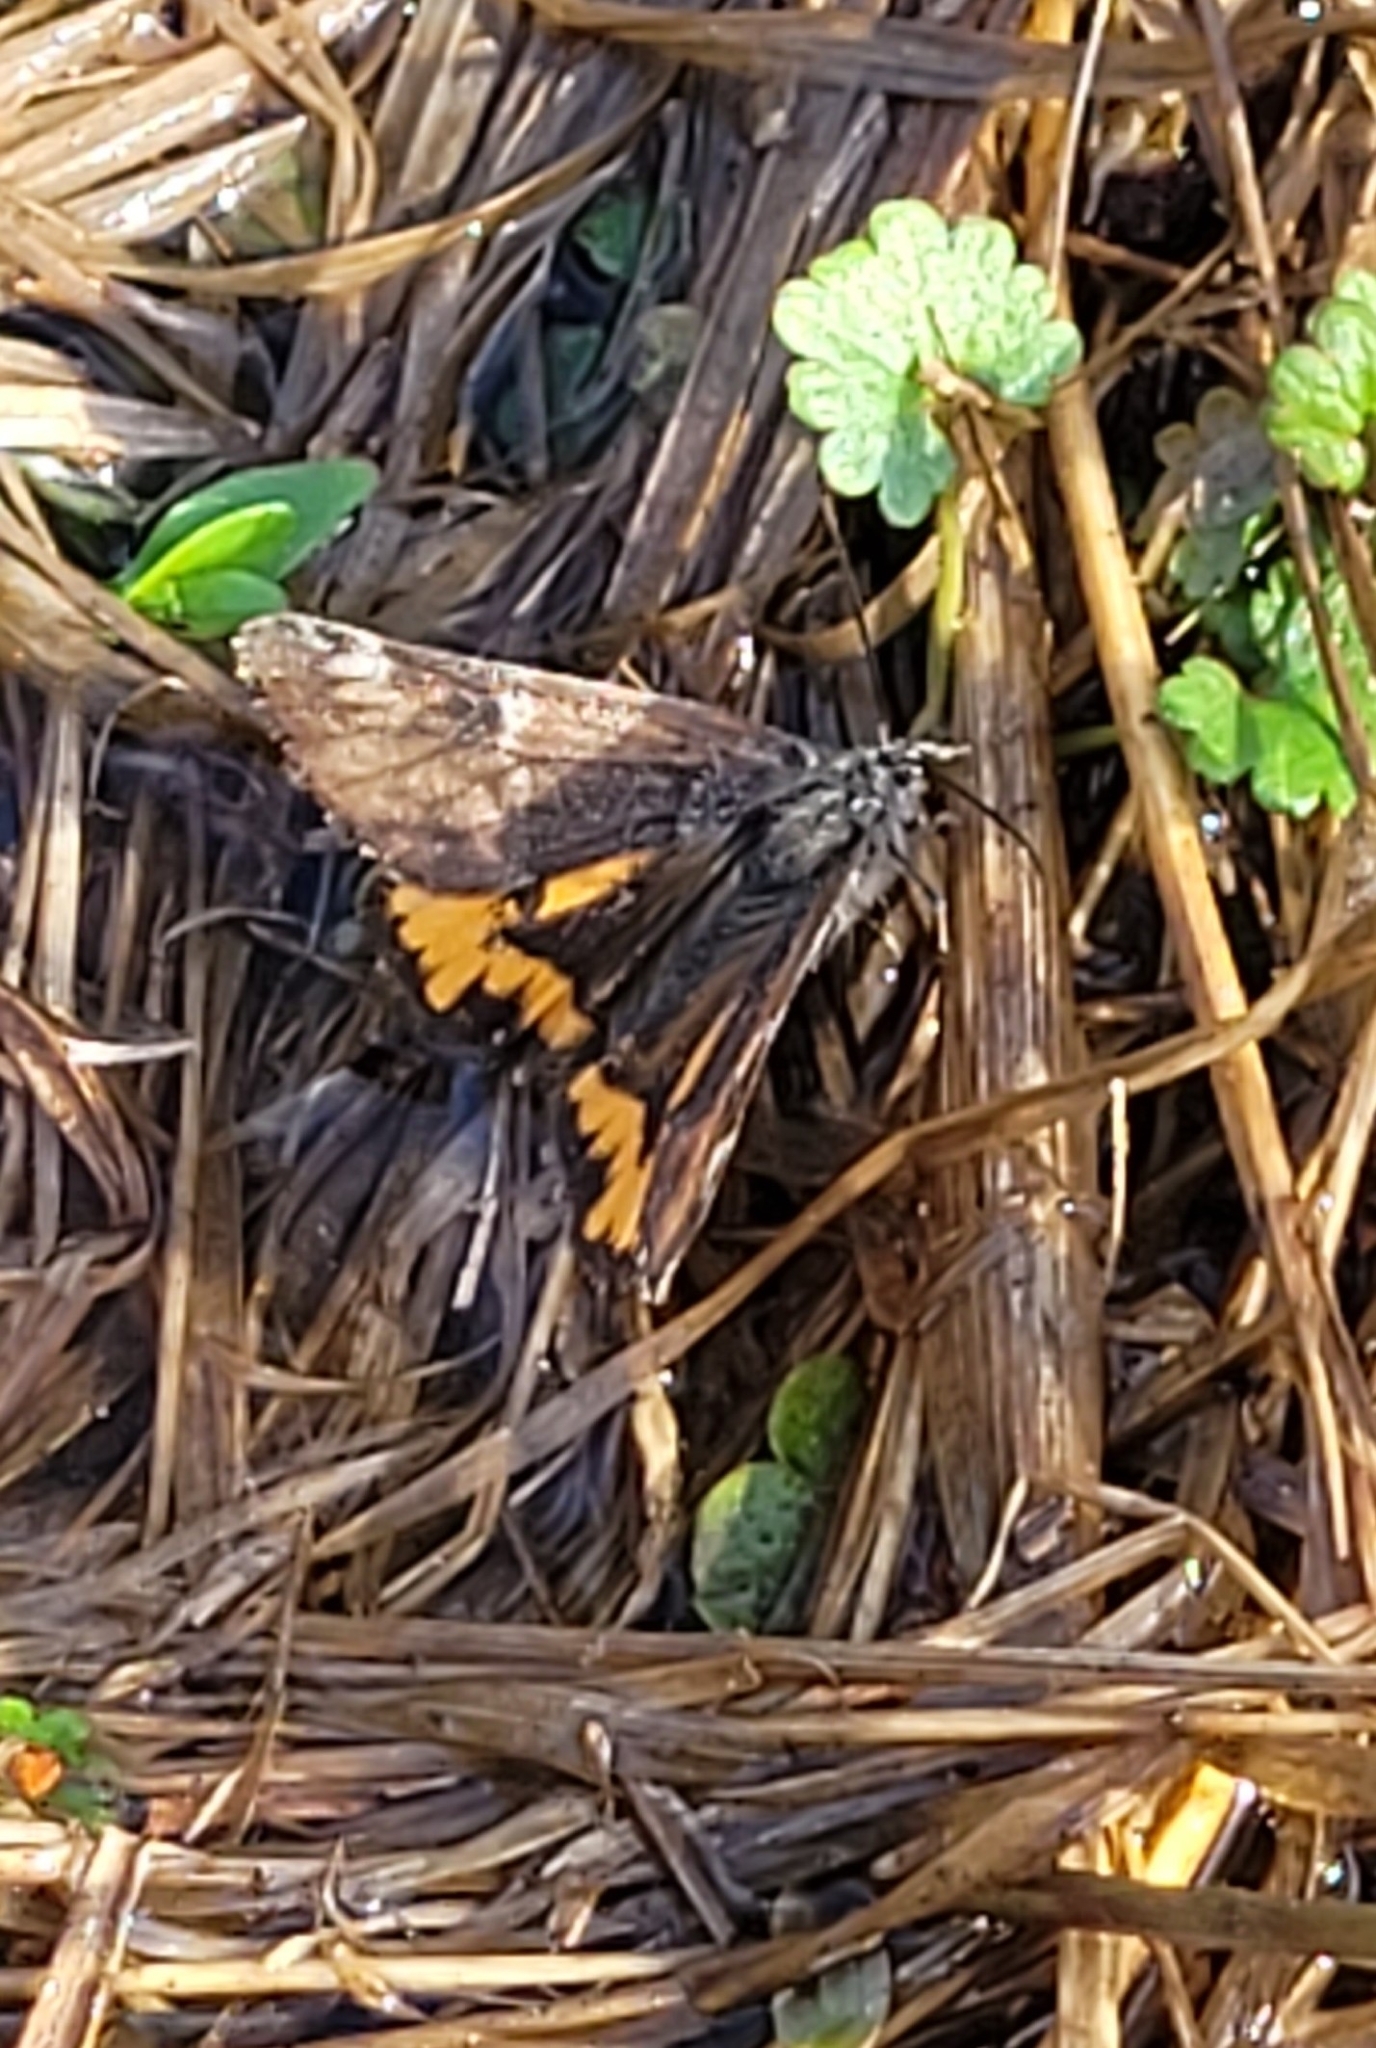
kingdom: Animalia
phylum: Arthropoda
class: Insecta
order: Lepidoptera
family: Geometridae
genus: Archiearis
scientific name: Archiearis parthenias
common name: Orange underwing
